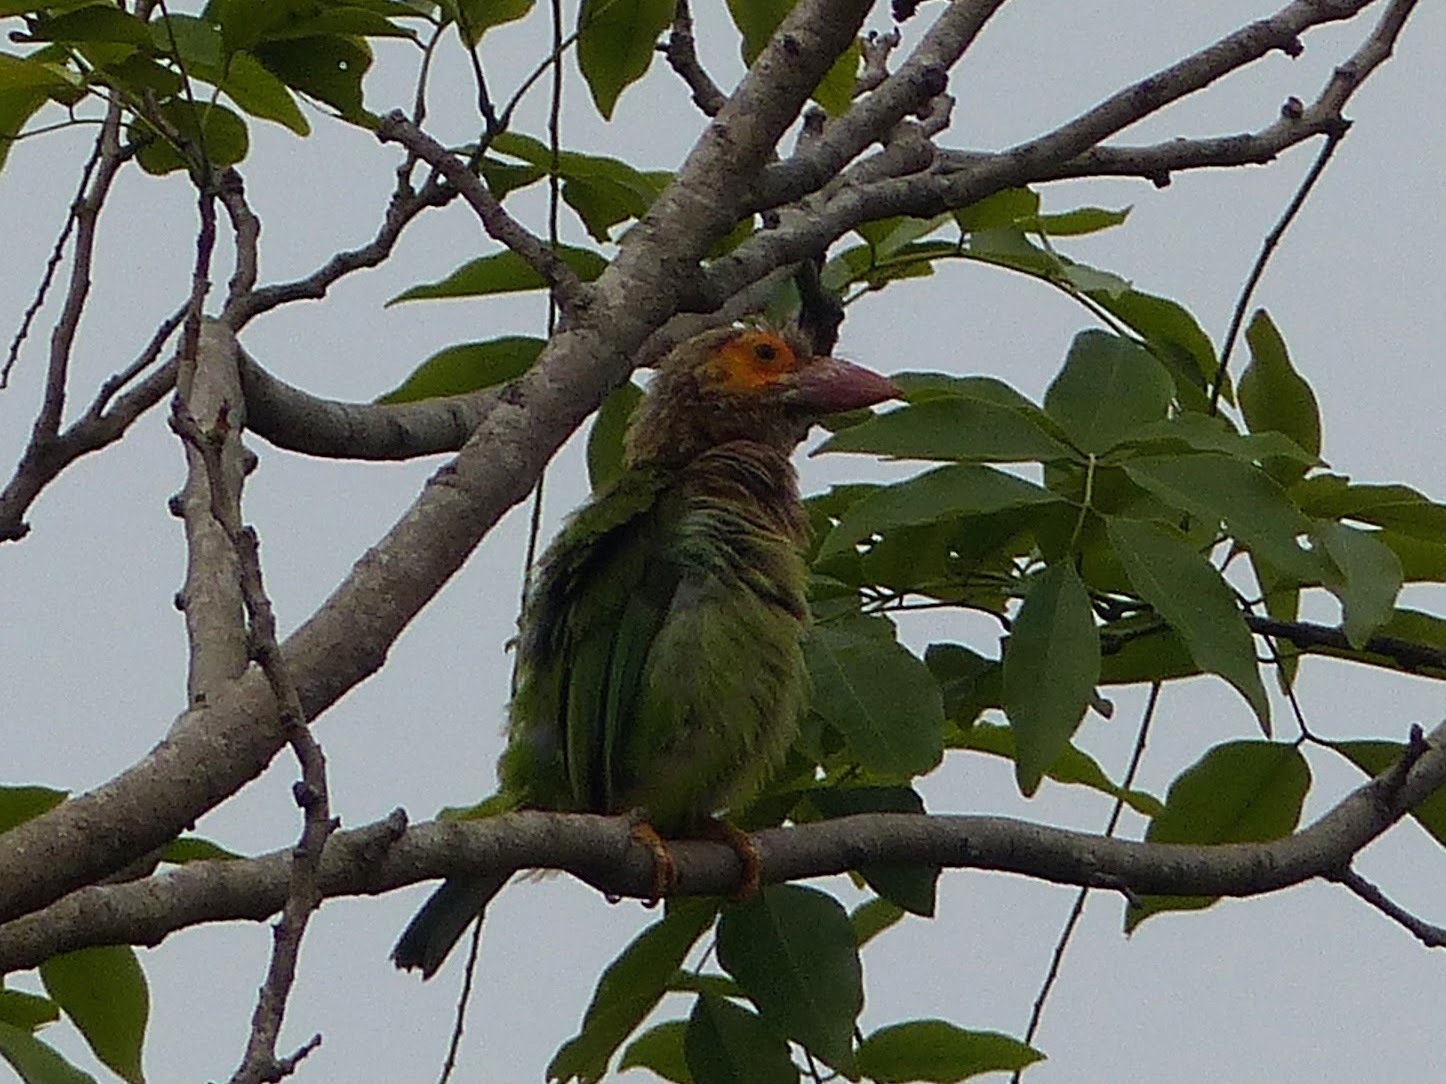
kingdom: Animalia
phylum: Chordata
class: Aves
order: Piciformes
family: Megalaimidae
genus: Psilopogon
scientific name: Psilopogon zeylanicus
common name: Brown-headed barbet
